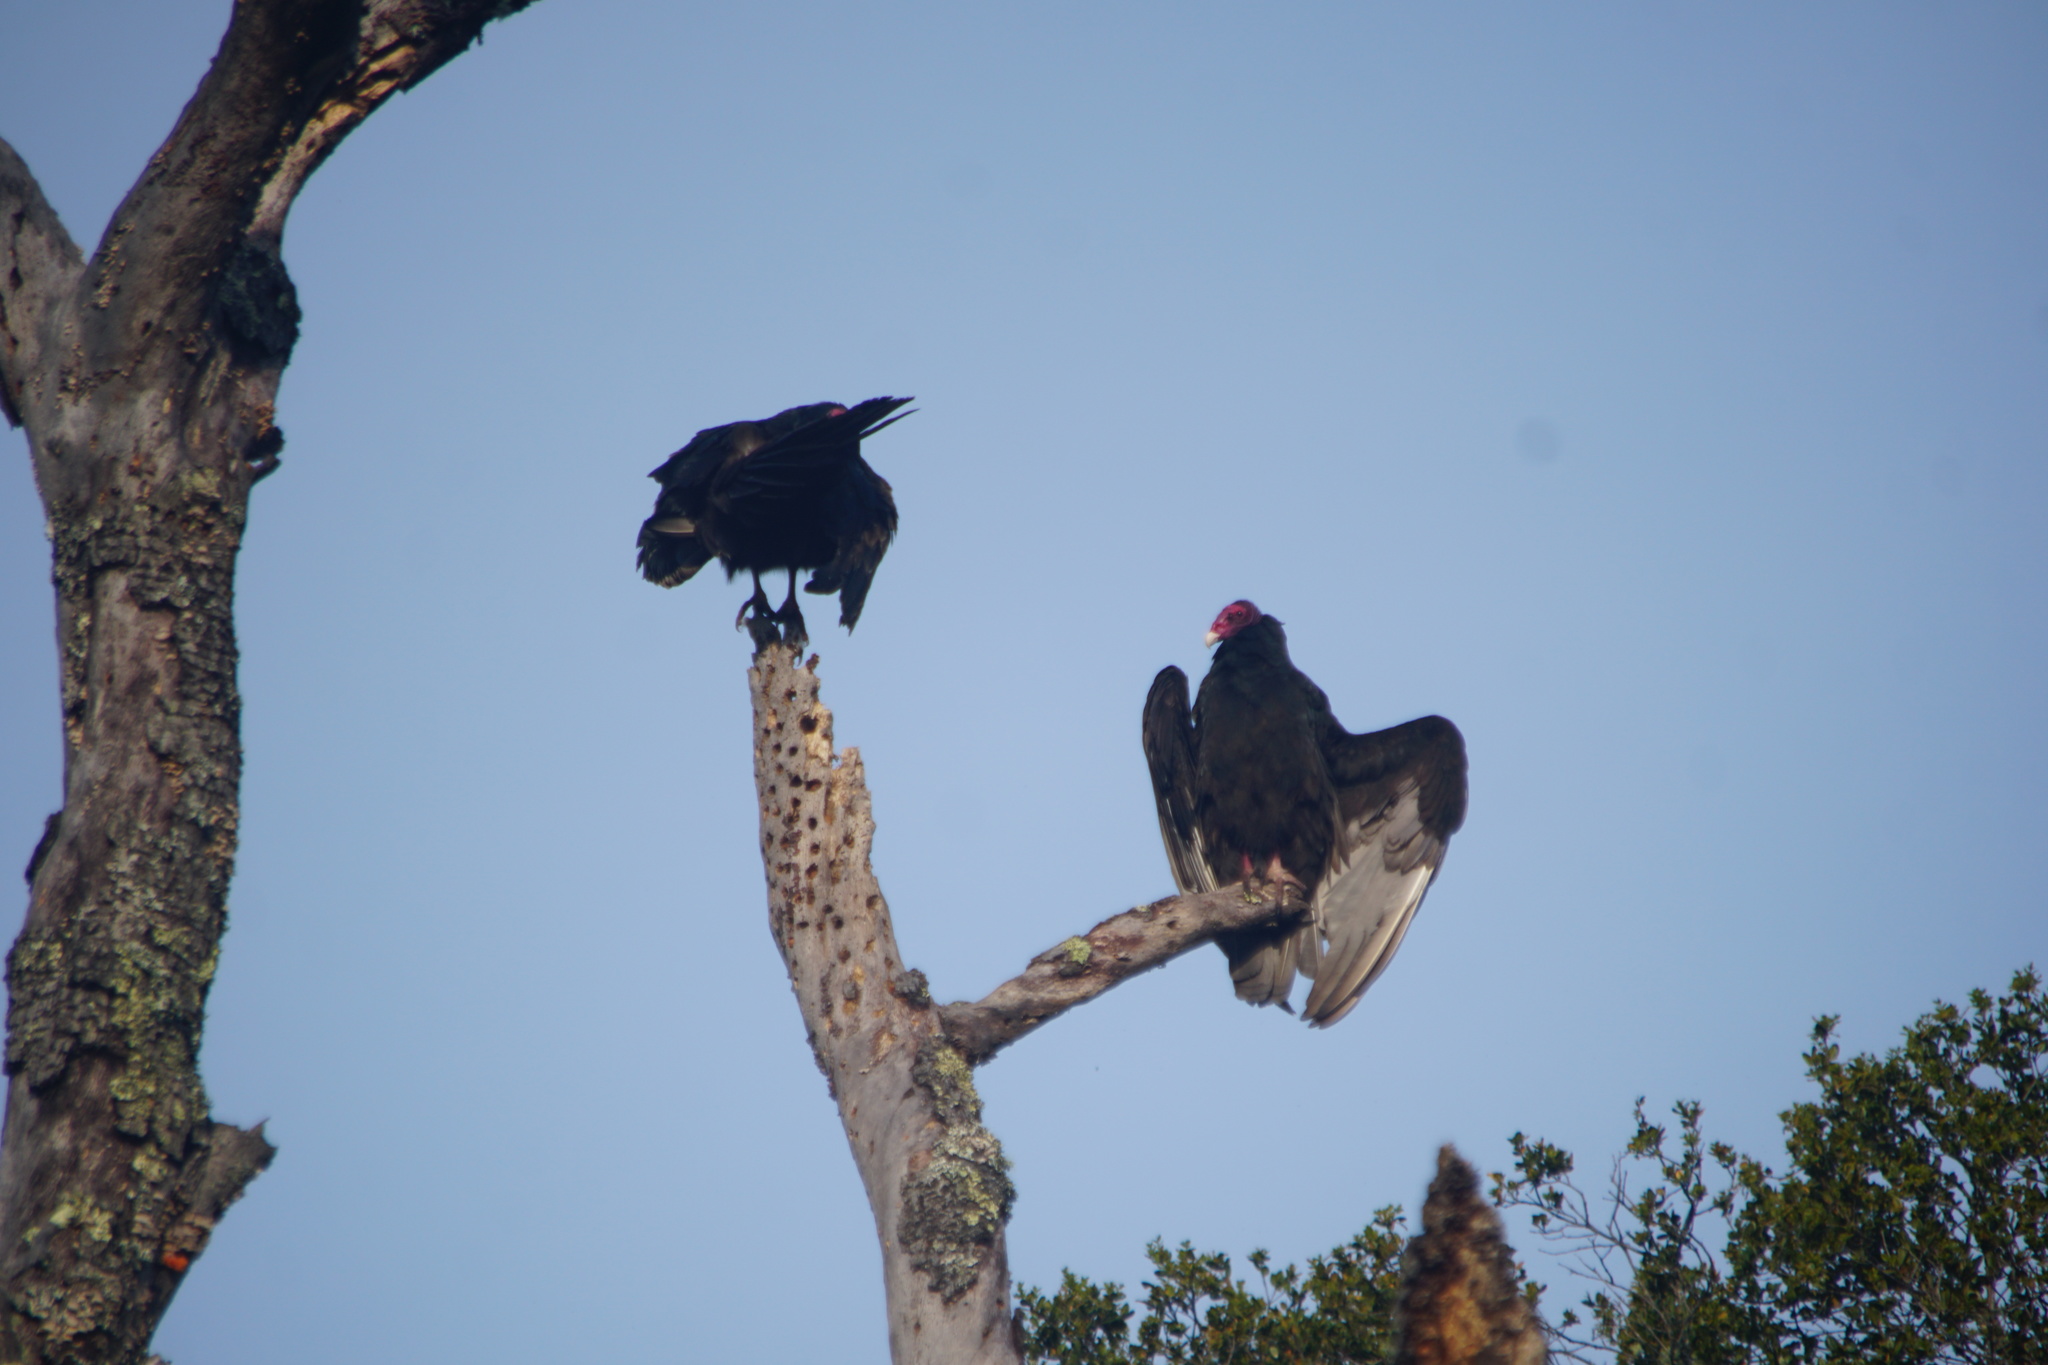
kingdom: Animalia
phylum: Chordata
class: Aves
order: Accipitriformes
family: Cathartidae
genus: Cathartes
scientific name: Cathartes aura
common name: Turkey vulture
